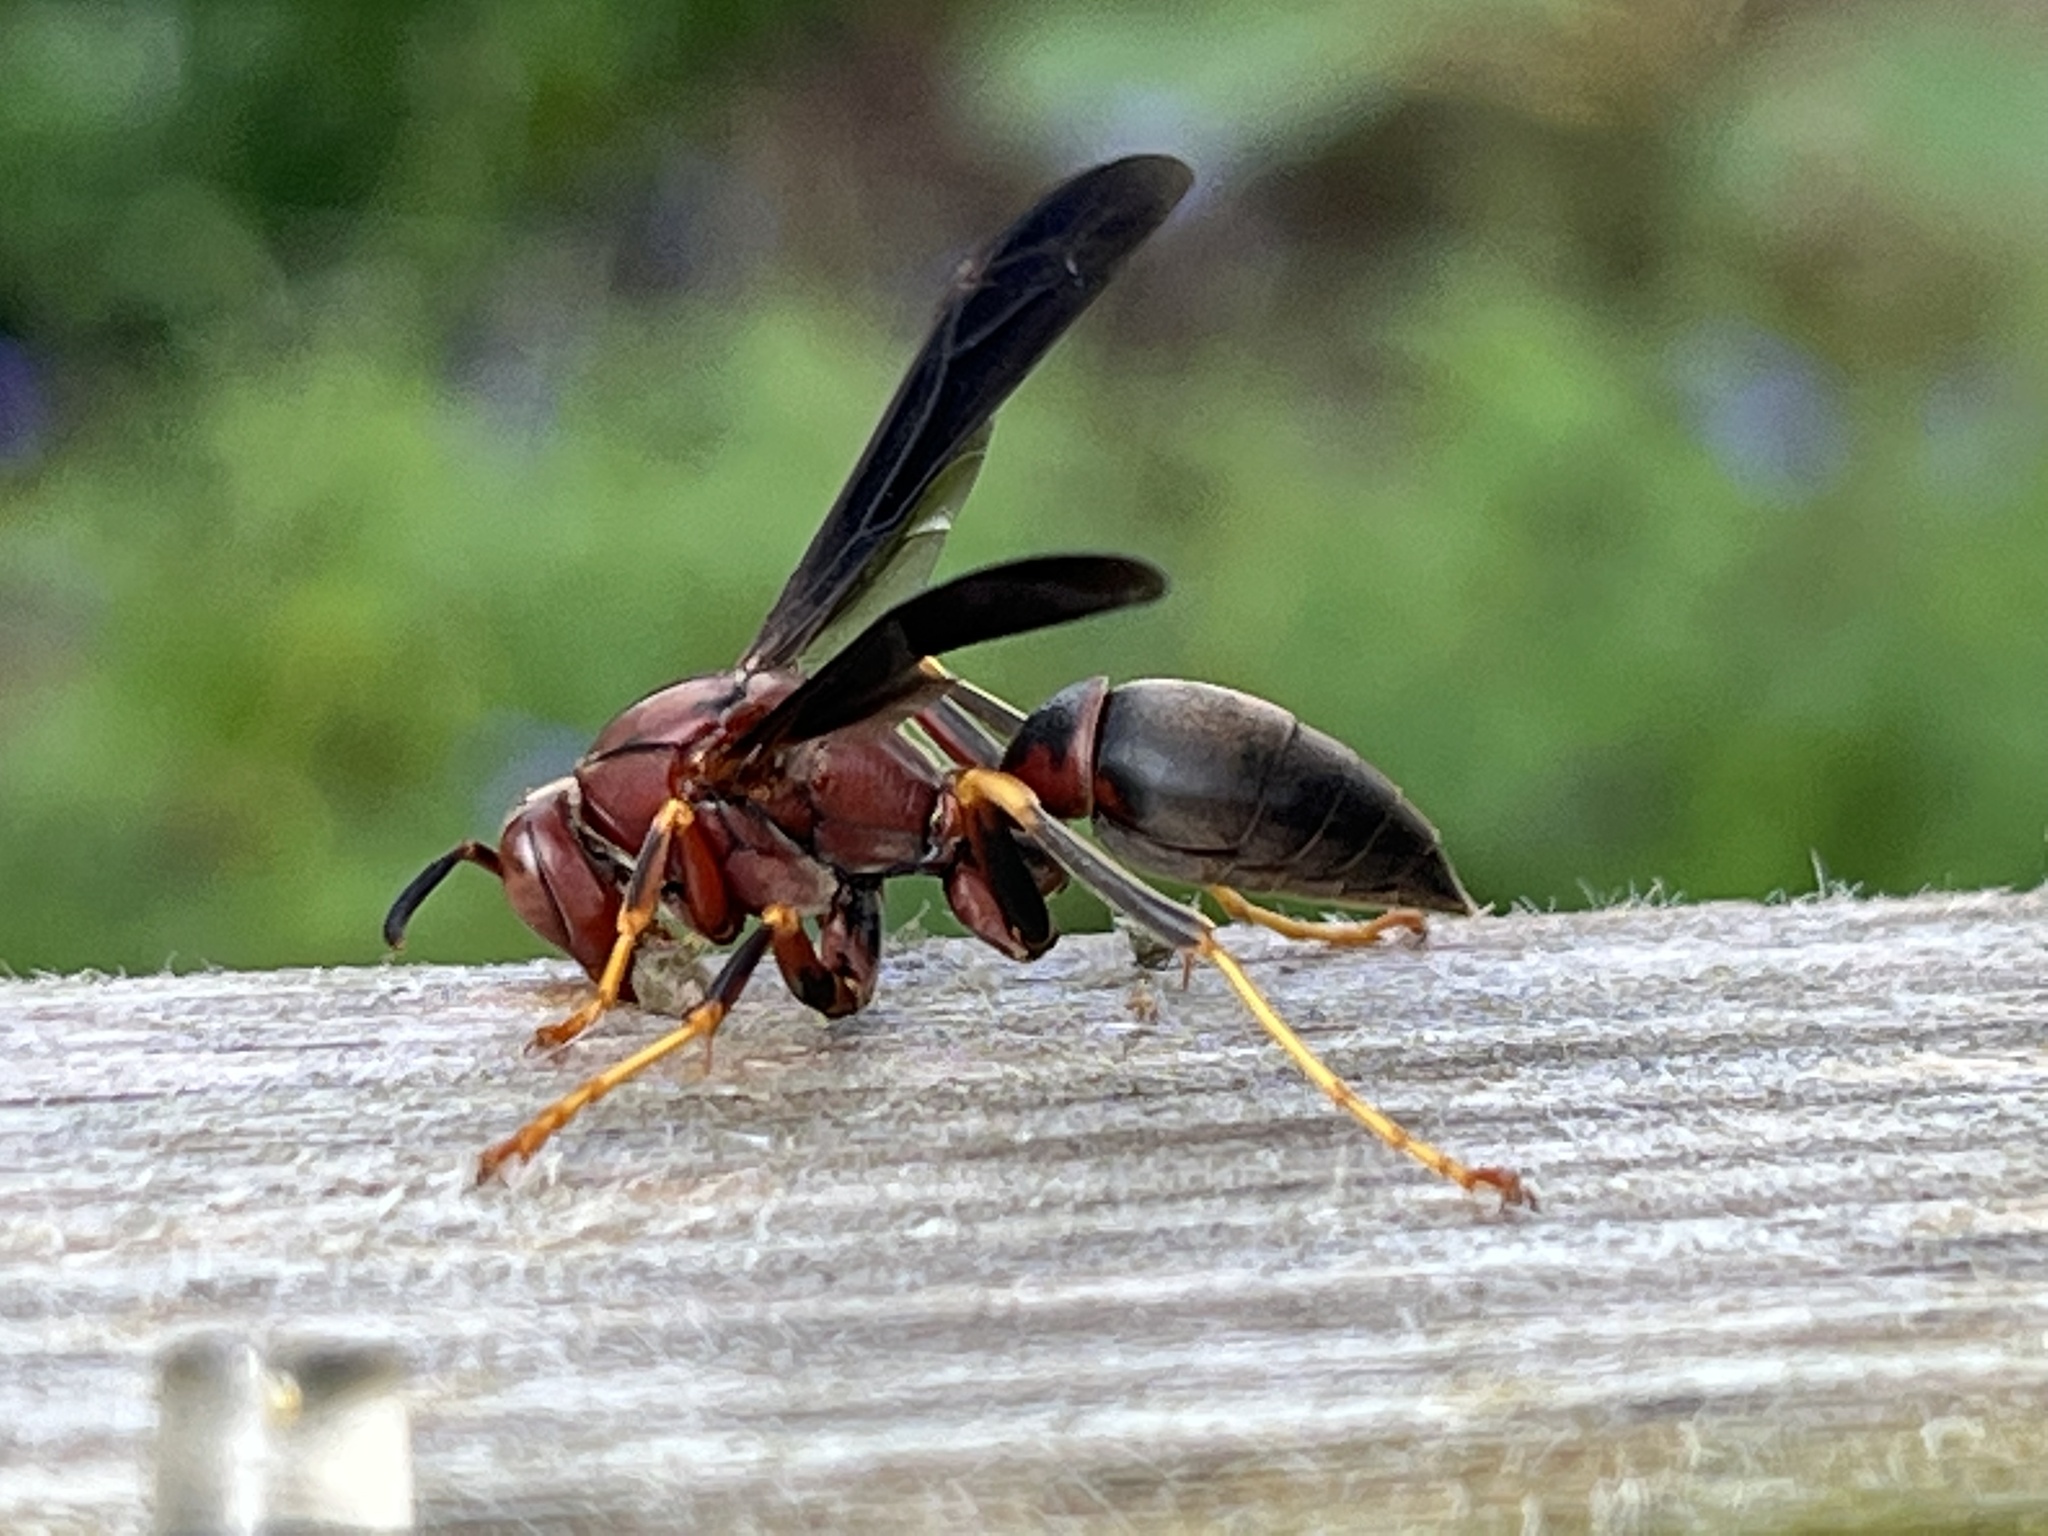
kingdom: Animalia
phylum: Arthropoda
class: Insecta
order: Hymenoptera
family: Eumenidae
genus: Polistes
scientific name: Polistes metricus
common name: Metric paper wasp
